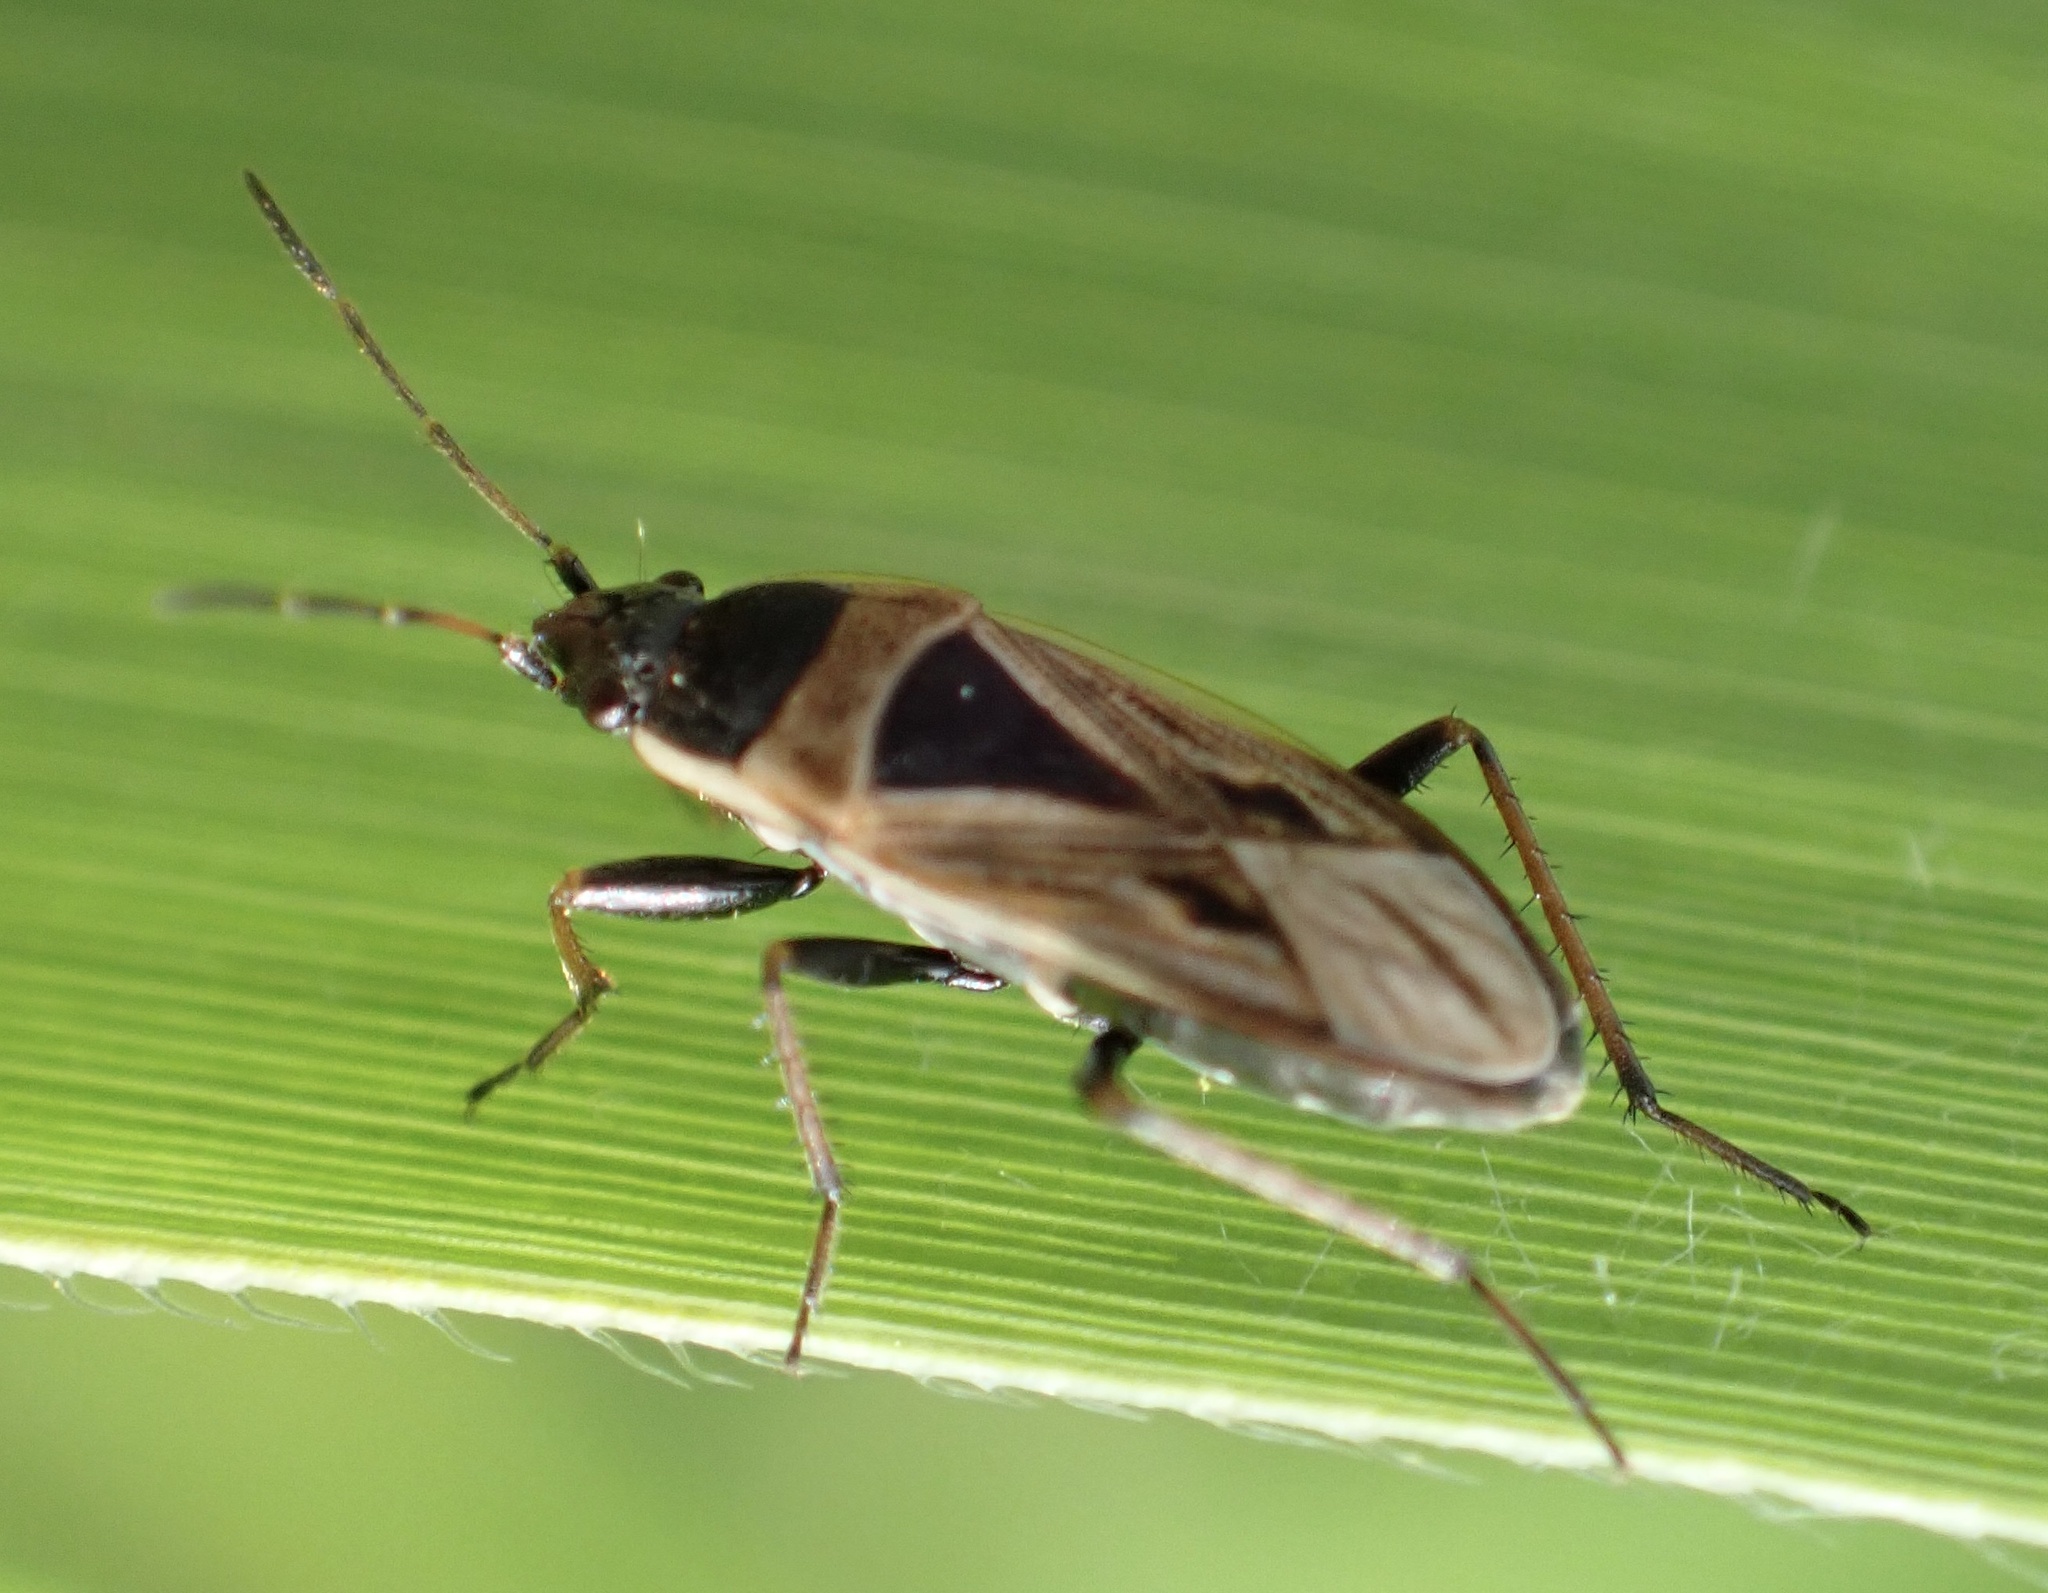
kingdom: Animalia
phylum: Arthropoda
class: Insecta
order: Hemiptera
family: Rhyparochromidae
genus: Xanthochilus
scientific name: Xanthochilus quadratus
